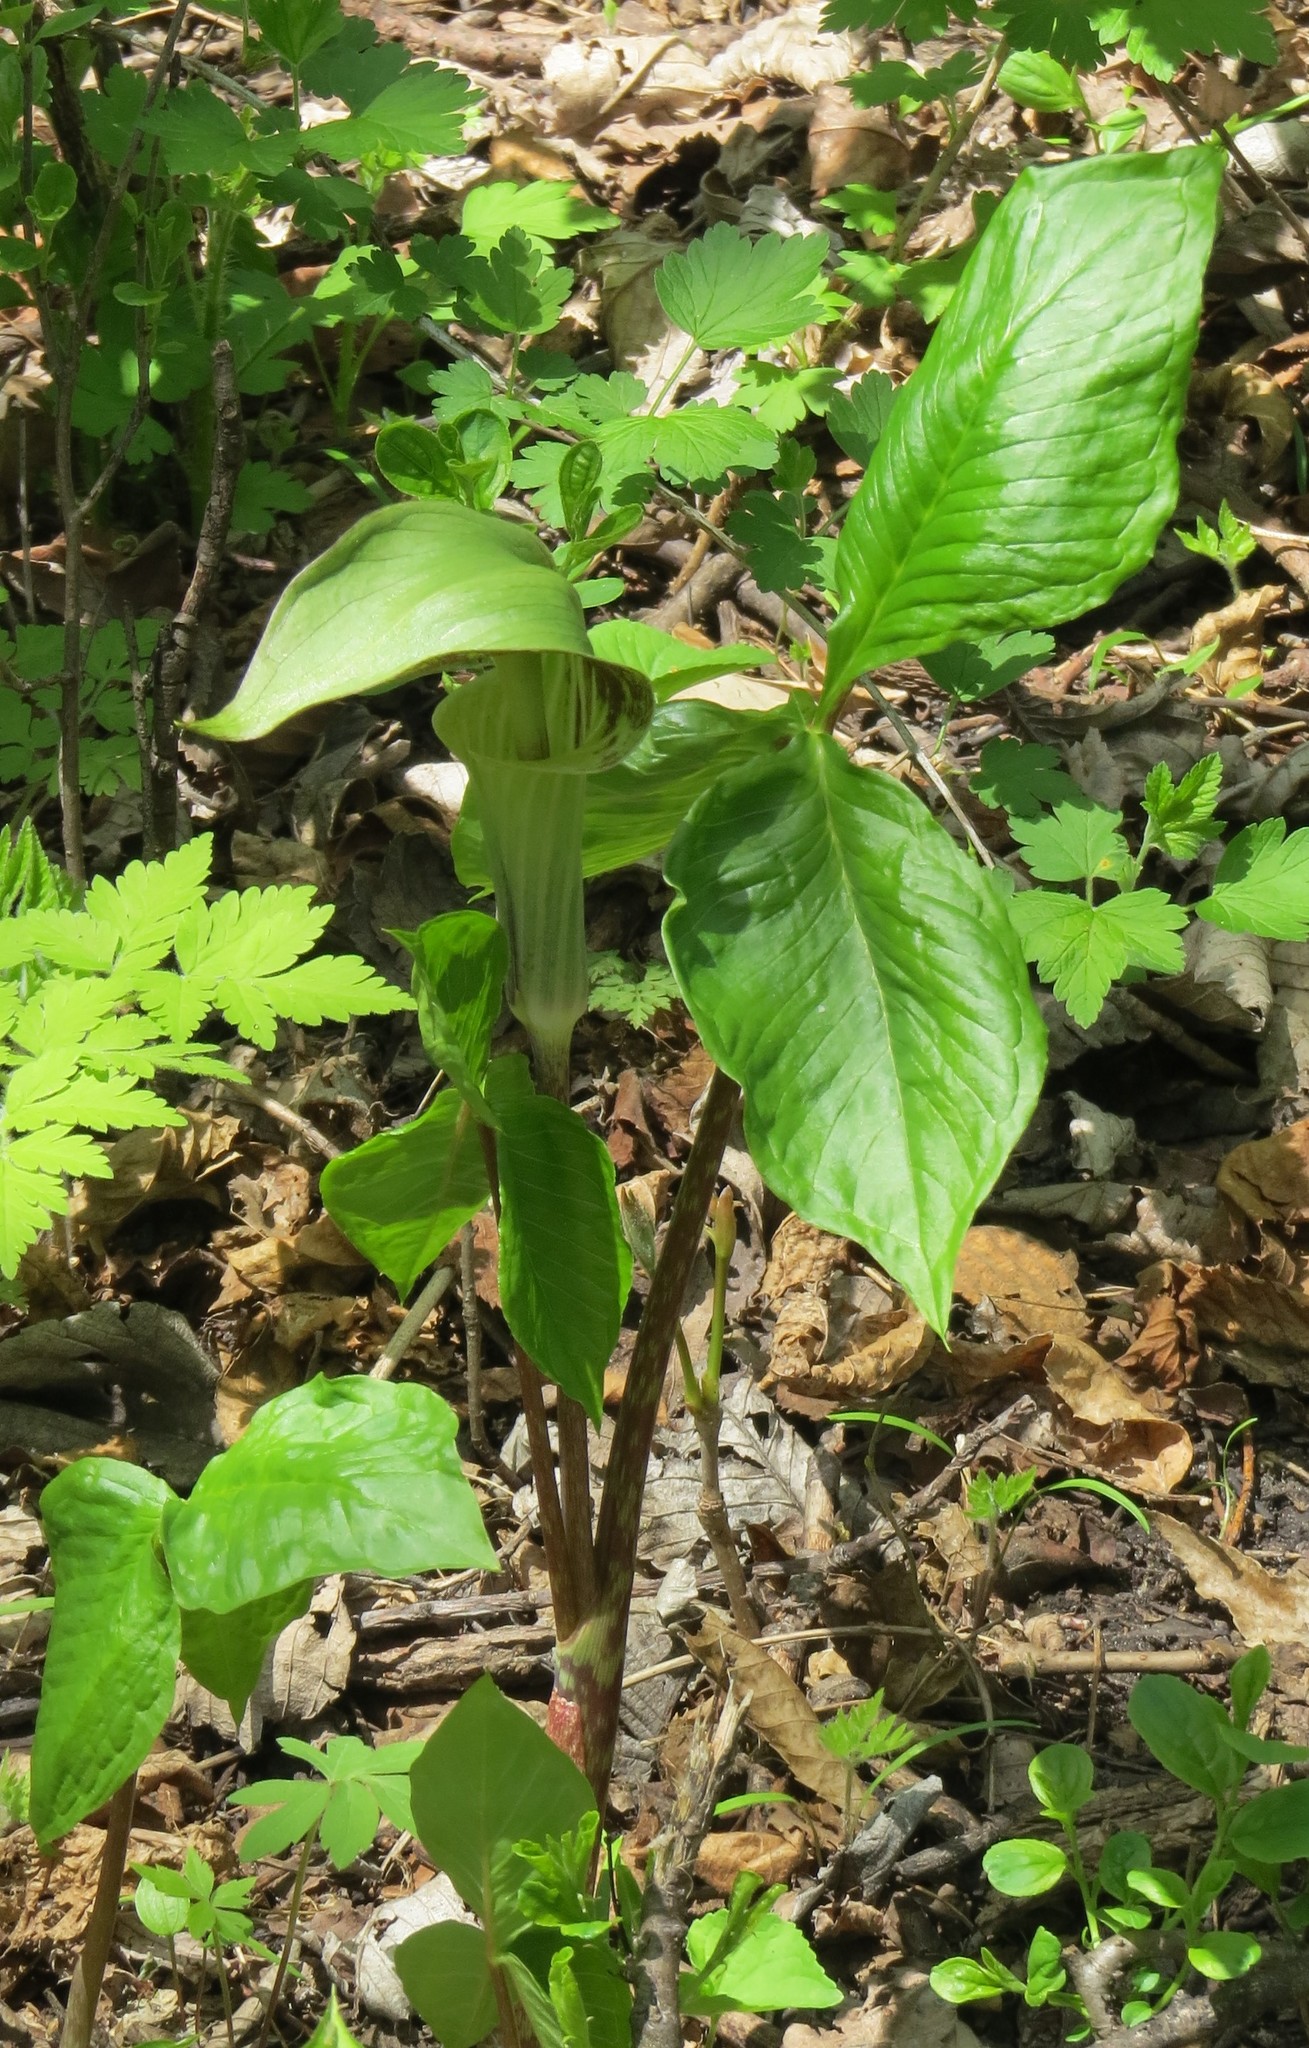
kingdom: Plantae
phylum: Tracheophyta
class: Liliopsida
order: Alismatales
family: Araceae
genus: Arisaema
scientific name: Arisaema triphyllum
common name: Jack-in-the-pulpit
